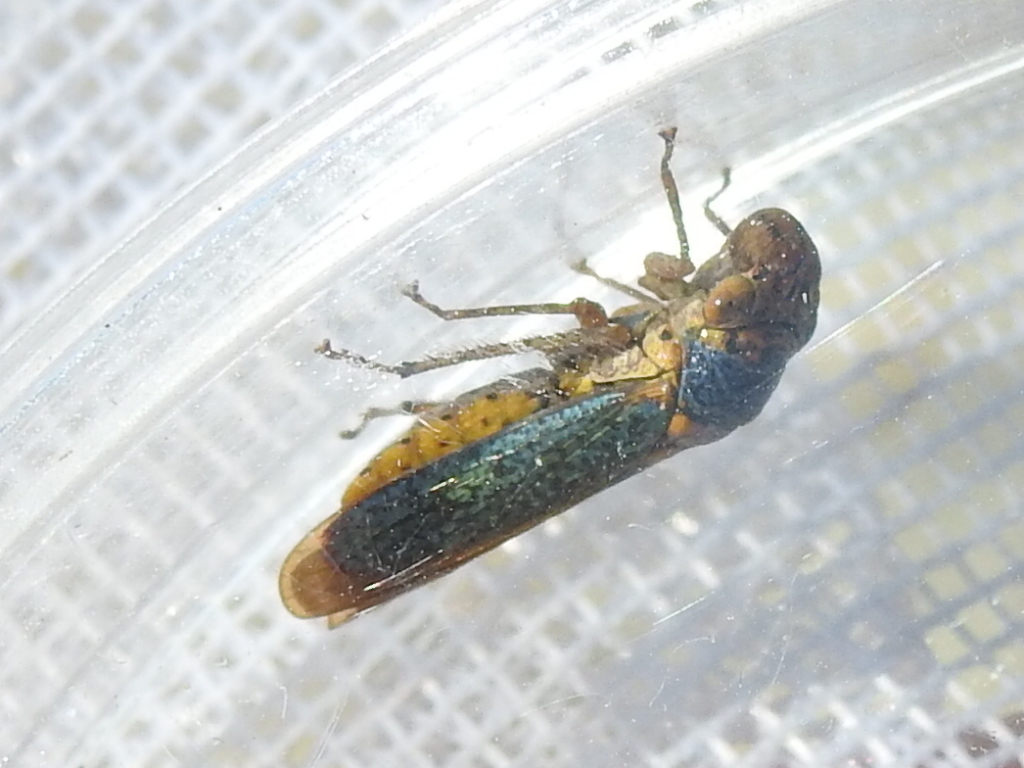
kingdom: Animalia
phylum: Arthropoda
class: Insecta
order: Hemiptera
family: Cicadellidae
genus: Oncometopia
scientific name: Oncometopia orbona
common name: Broad-headed sharpshooter
